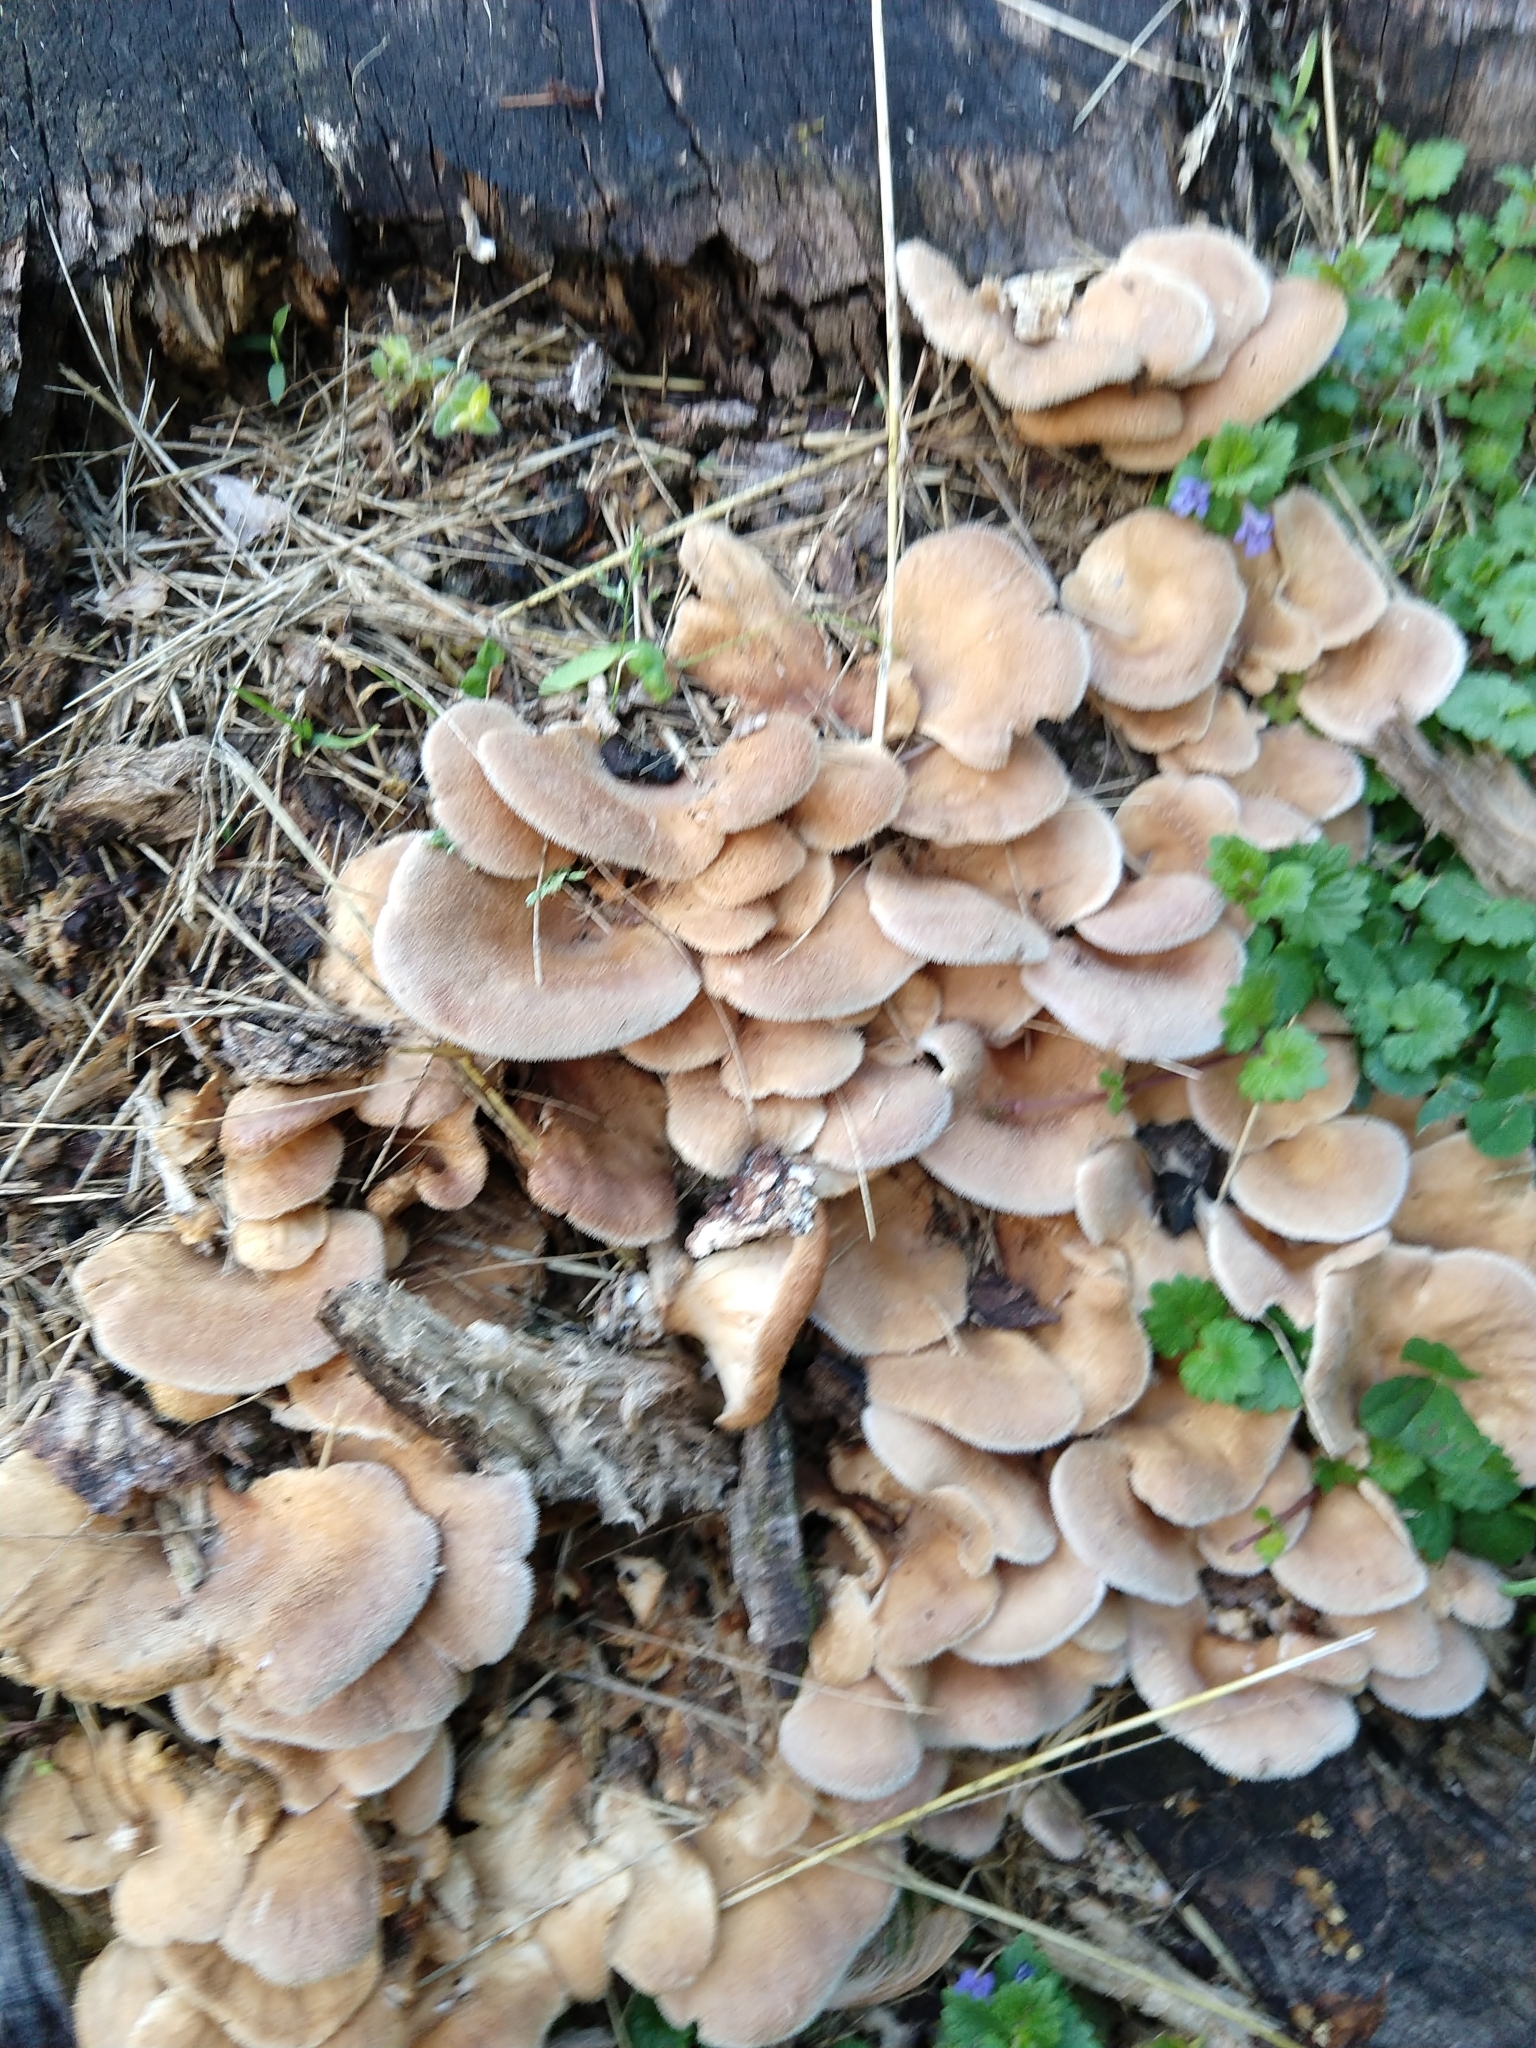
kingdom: Fungi
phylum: Basidiomycota
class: Agaricomycetes
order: Polyporales
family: Panaceae
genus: Panus
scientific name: Panus neostrigosus
